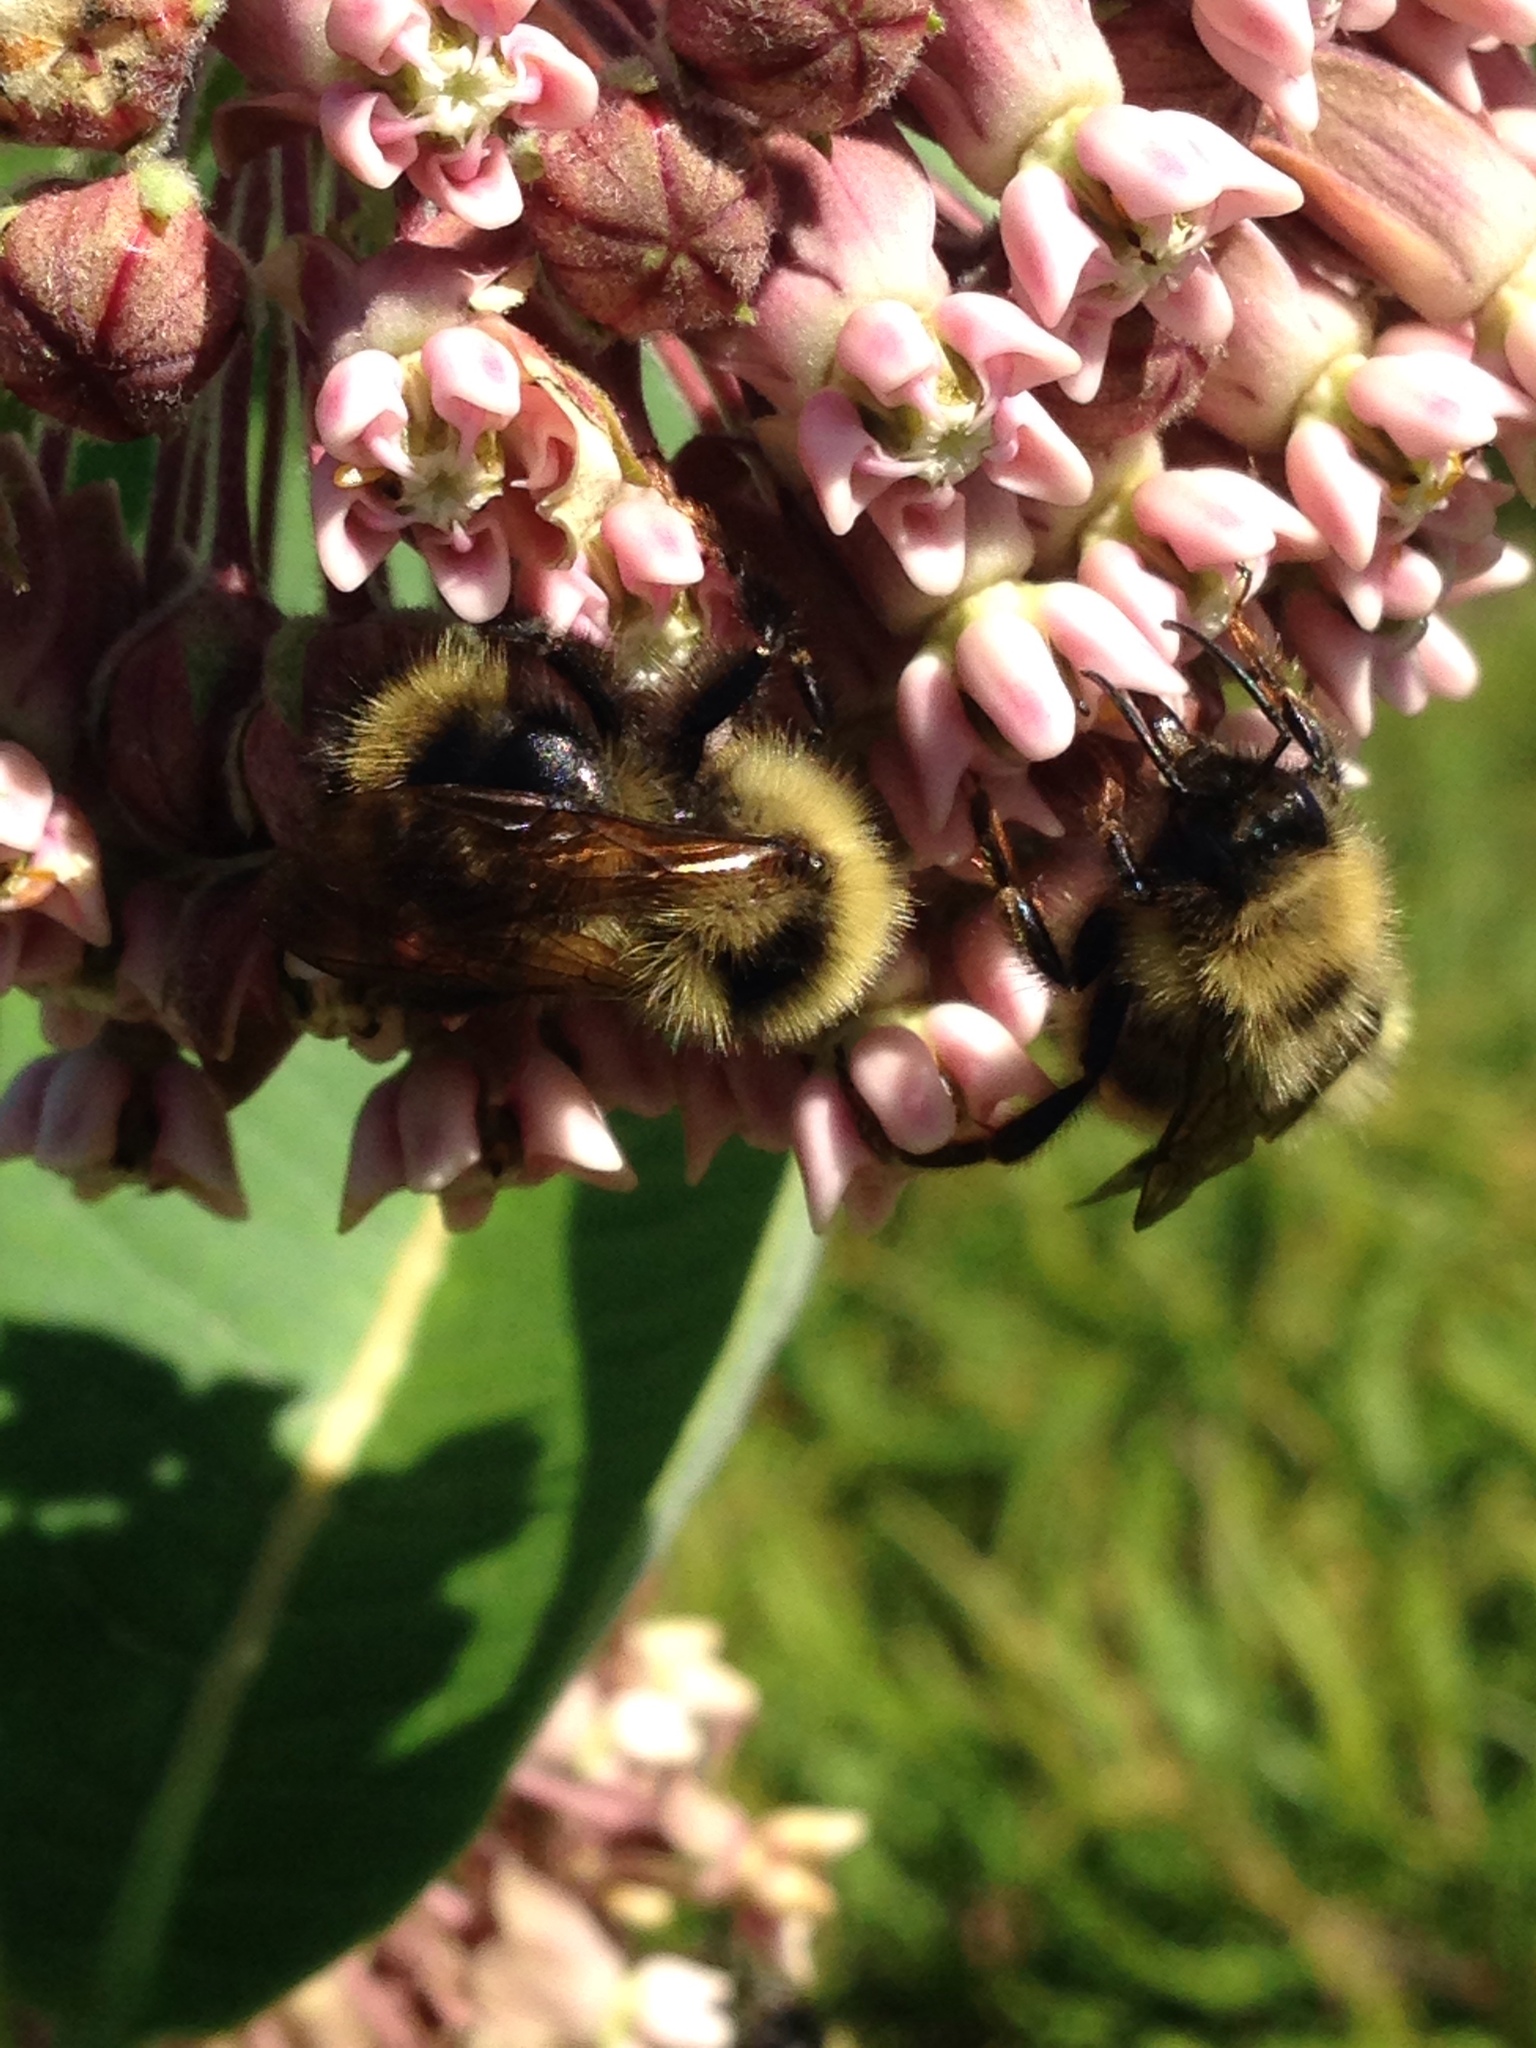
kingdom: Animalia
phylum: Arthropoda
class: Insecta
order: Hymenoptera
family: Apidae
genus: Bombus
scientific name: Bombus flavidus
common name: Fernald cuckoo bumble bee
